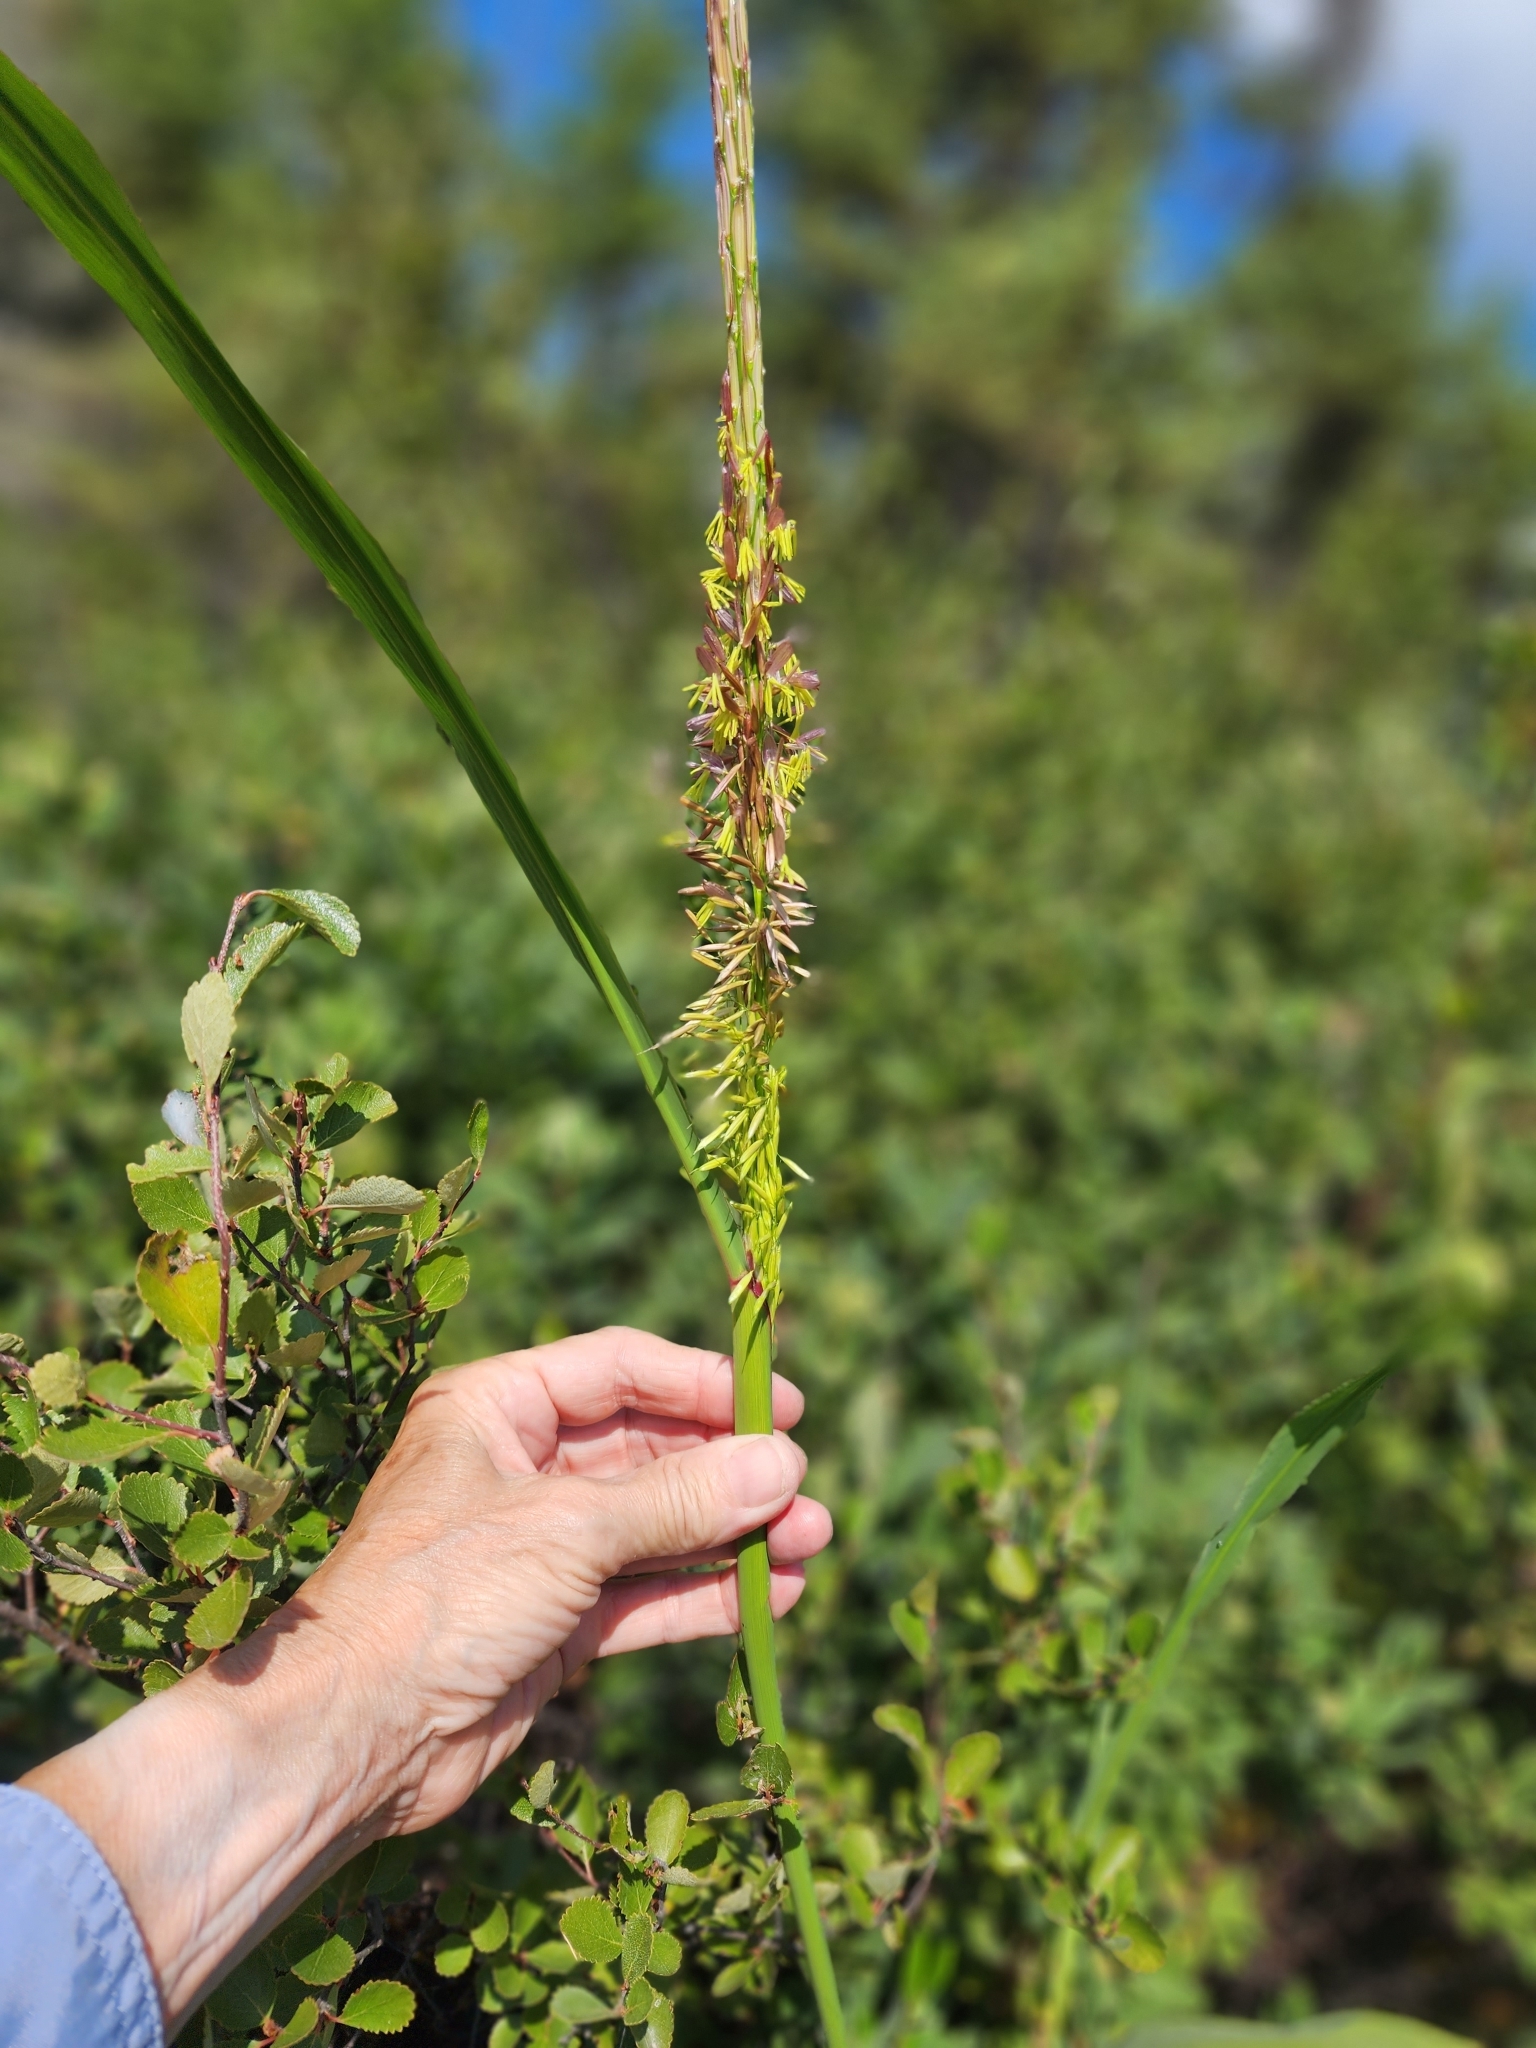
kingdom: Plantae
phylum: Tracheophyta
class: Liliopsida
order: Poales
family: Poaceae
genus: Zizania
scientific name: Zizania palustris
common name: Northern wild rice
